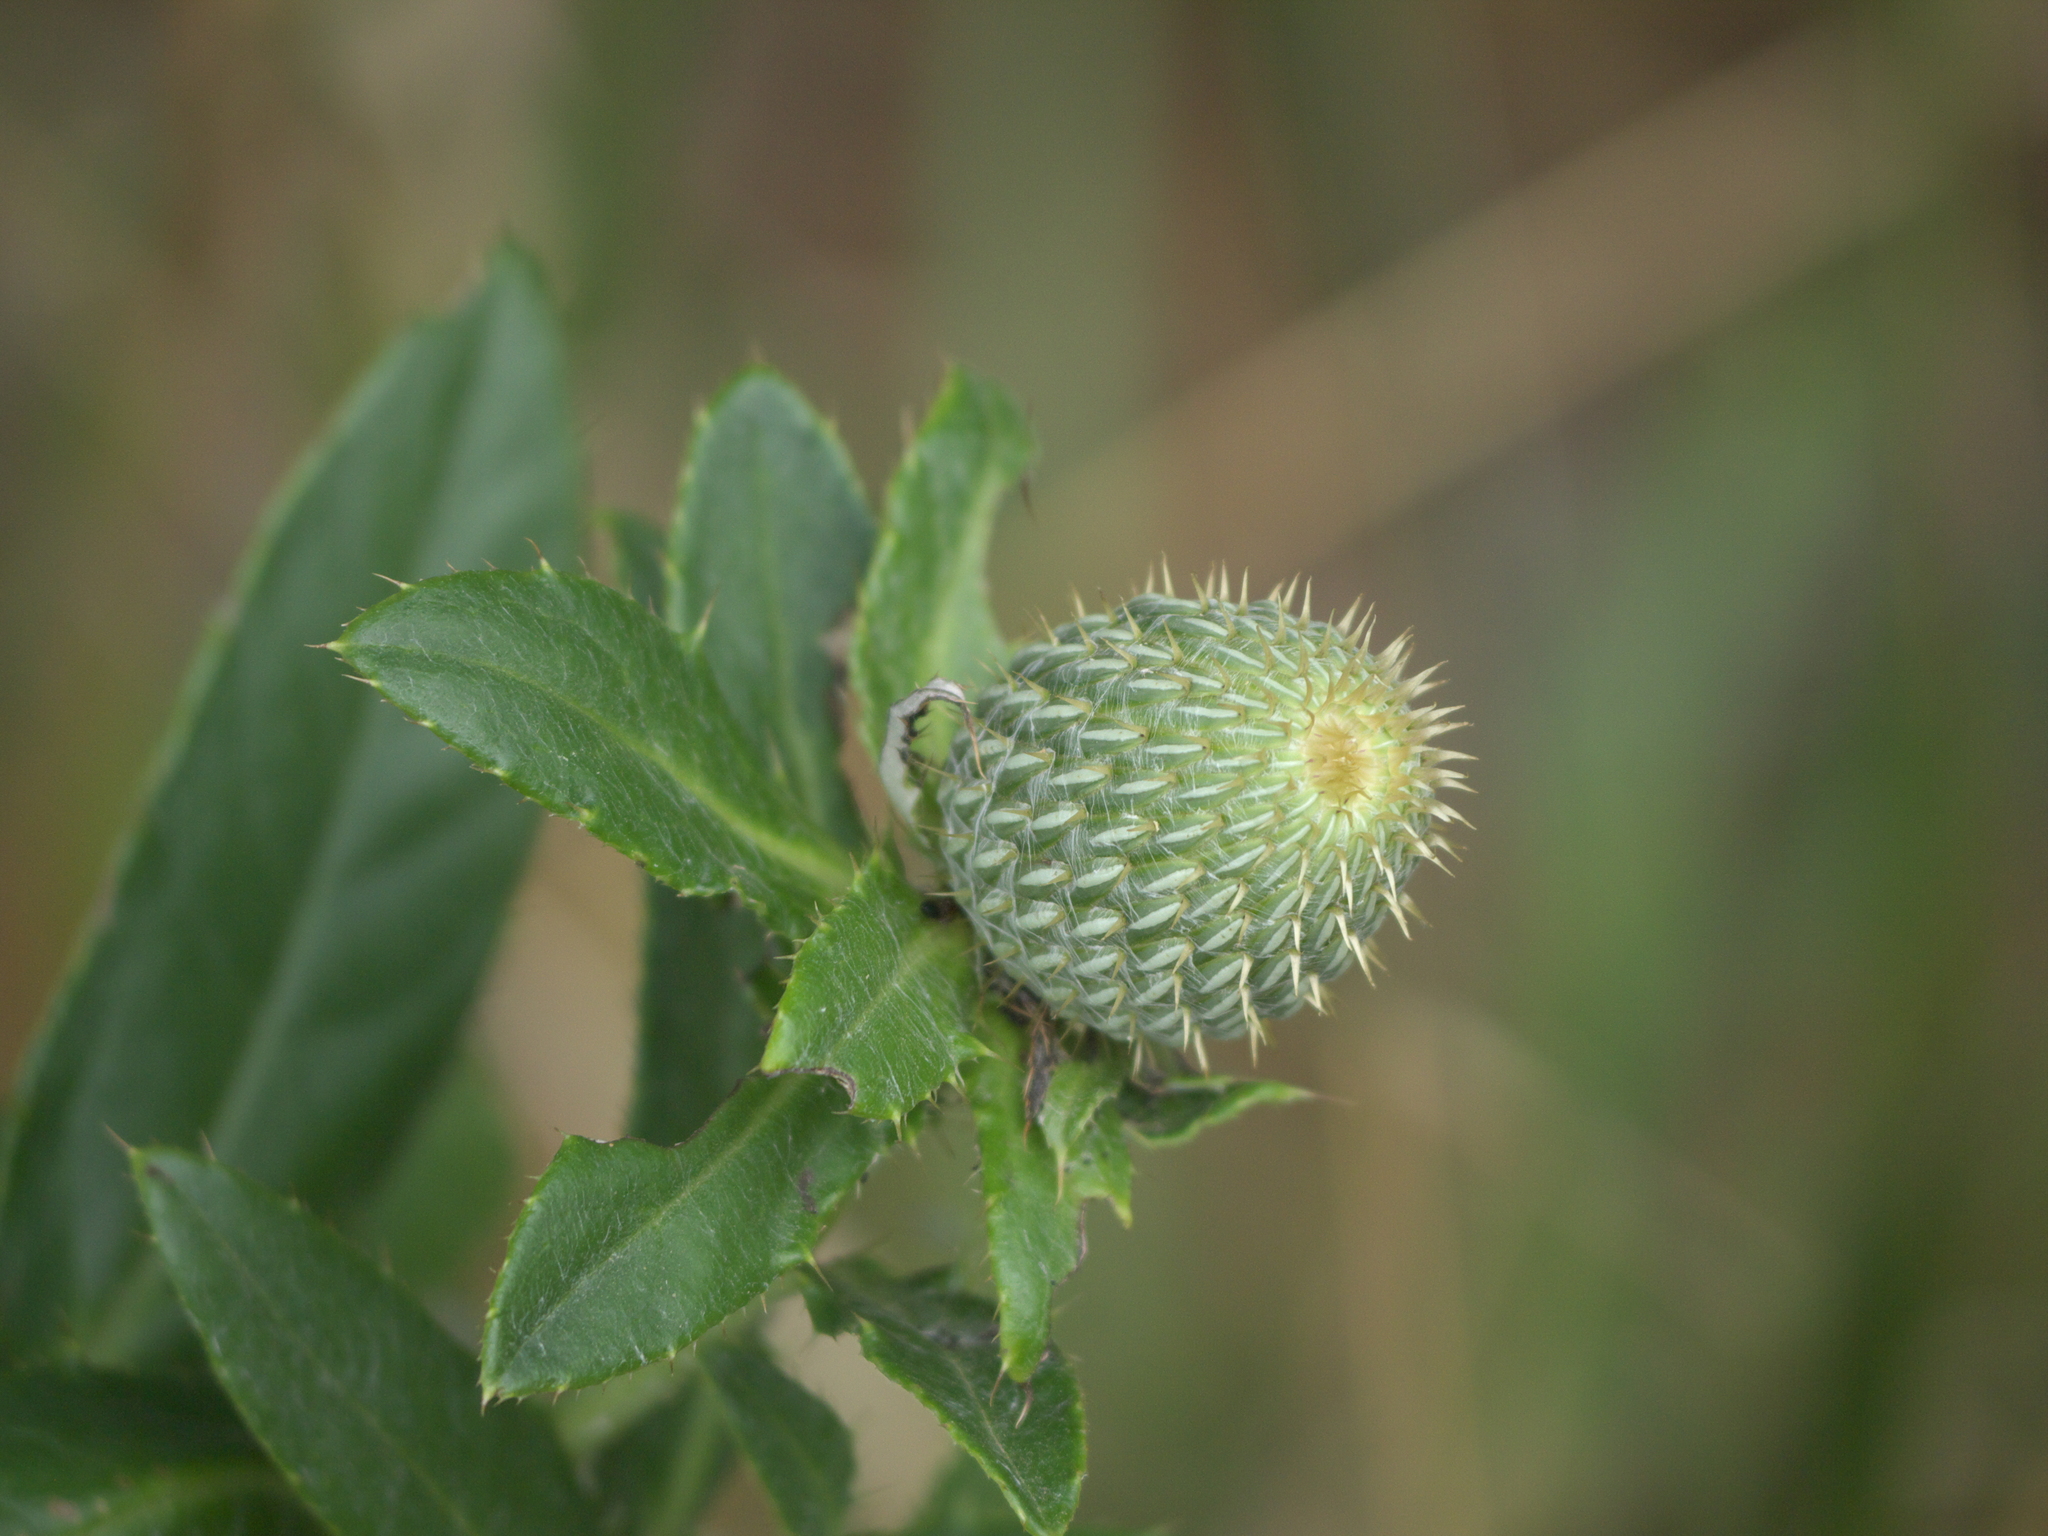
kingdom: Plantae
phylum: Tracheophyta
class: Magnoliopsida
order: Asterales
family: Asteraceae
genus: Cirsium
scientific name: Cirsium altissimum
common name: Roadside thistle
